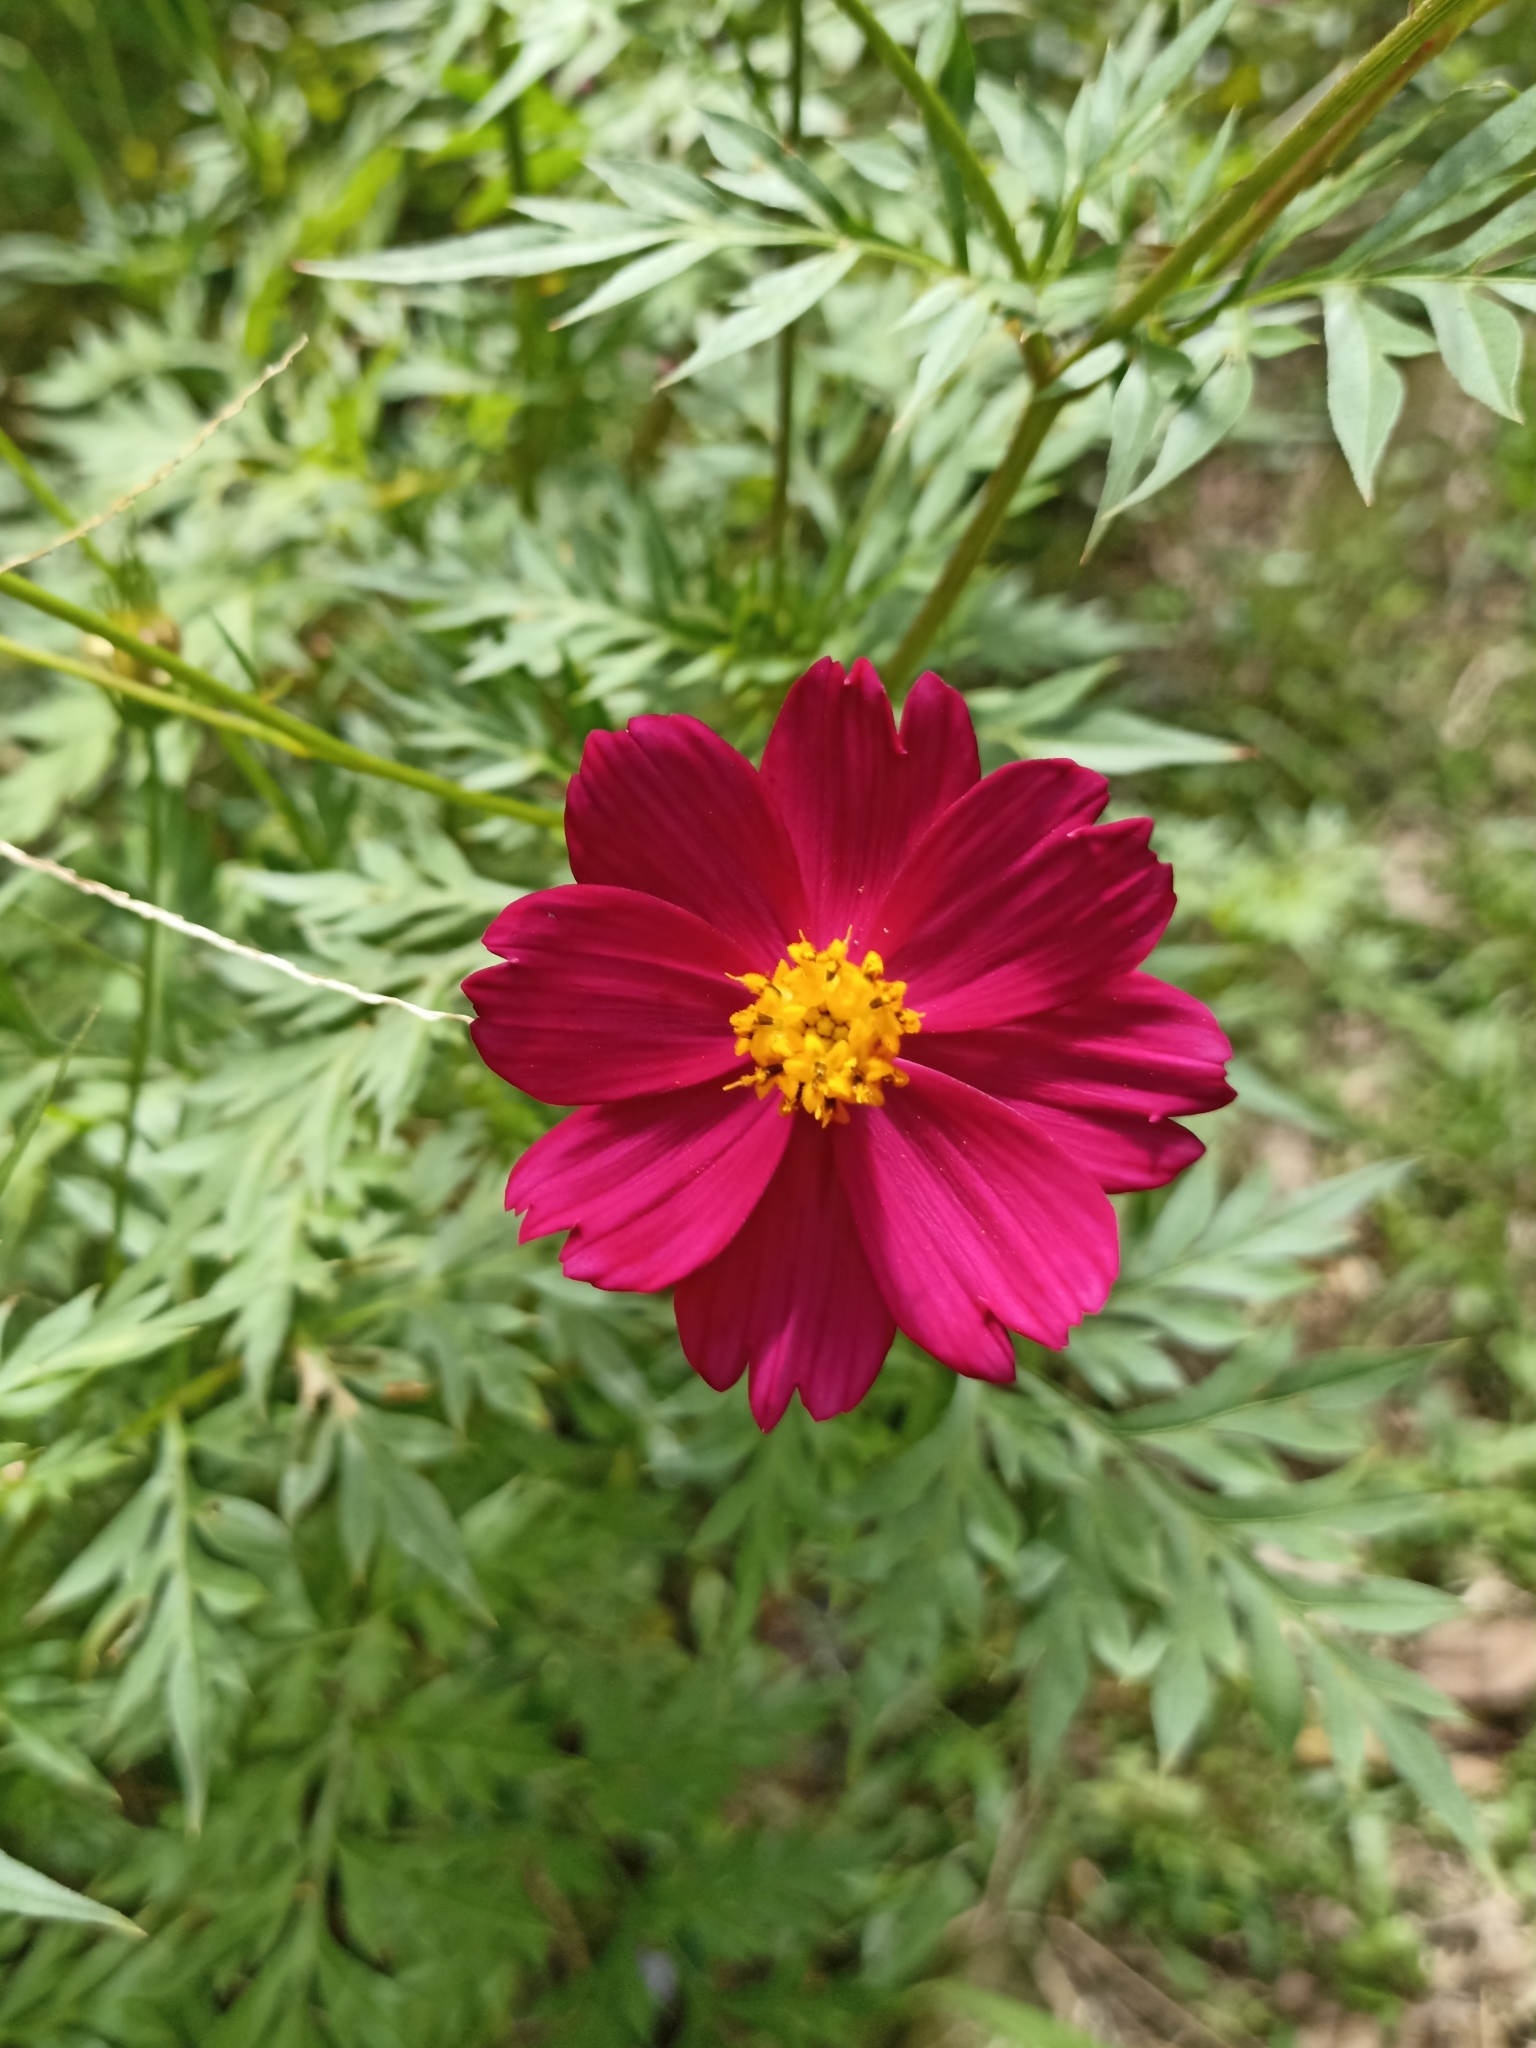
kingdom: Plantae
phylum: Tracheophyta
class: Magnoliopsida
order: Asterales
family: Asteraceae
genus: Cosmos
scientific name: Cosmos caudatus
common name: Wild cosmos
